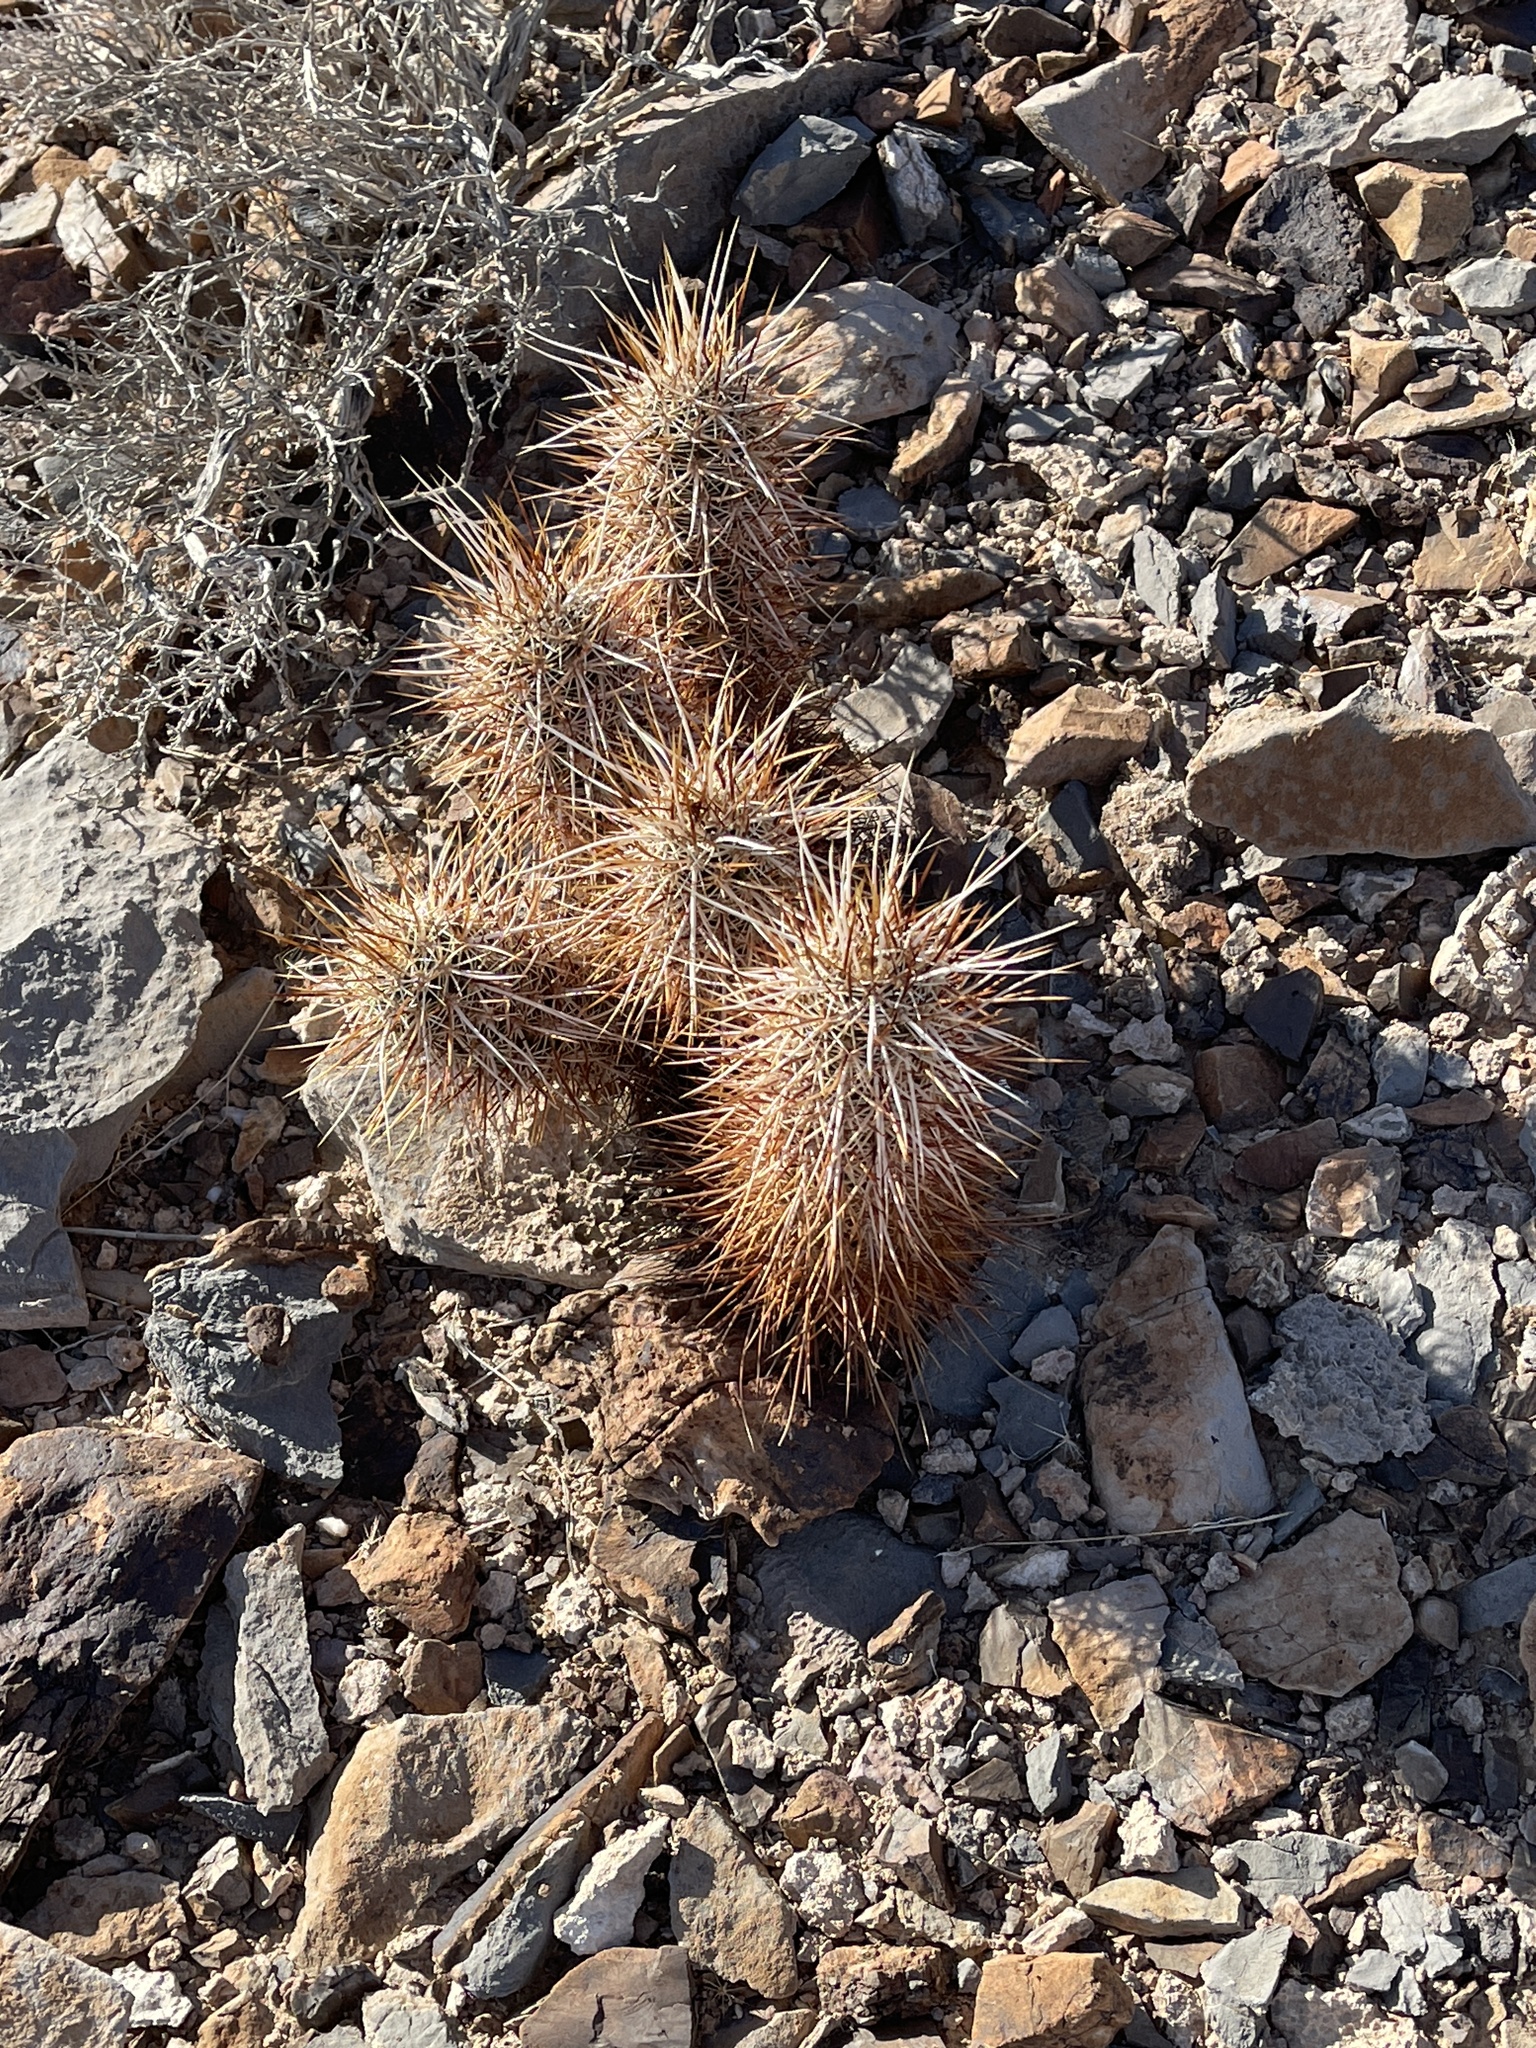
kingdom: Plantae
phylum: Tracheophyta
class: Magnoliopsida
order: Caryophyllales
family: Cactaceae
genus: Echinocereus
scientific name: Echinocereus engelmannii
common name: Engelmann's hedgehog cactus
